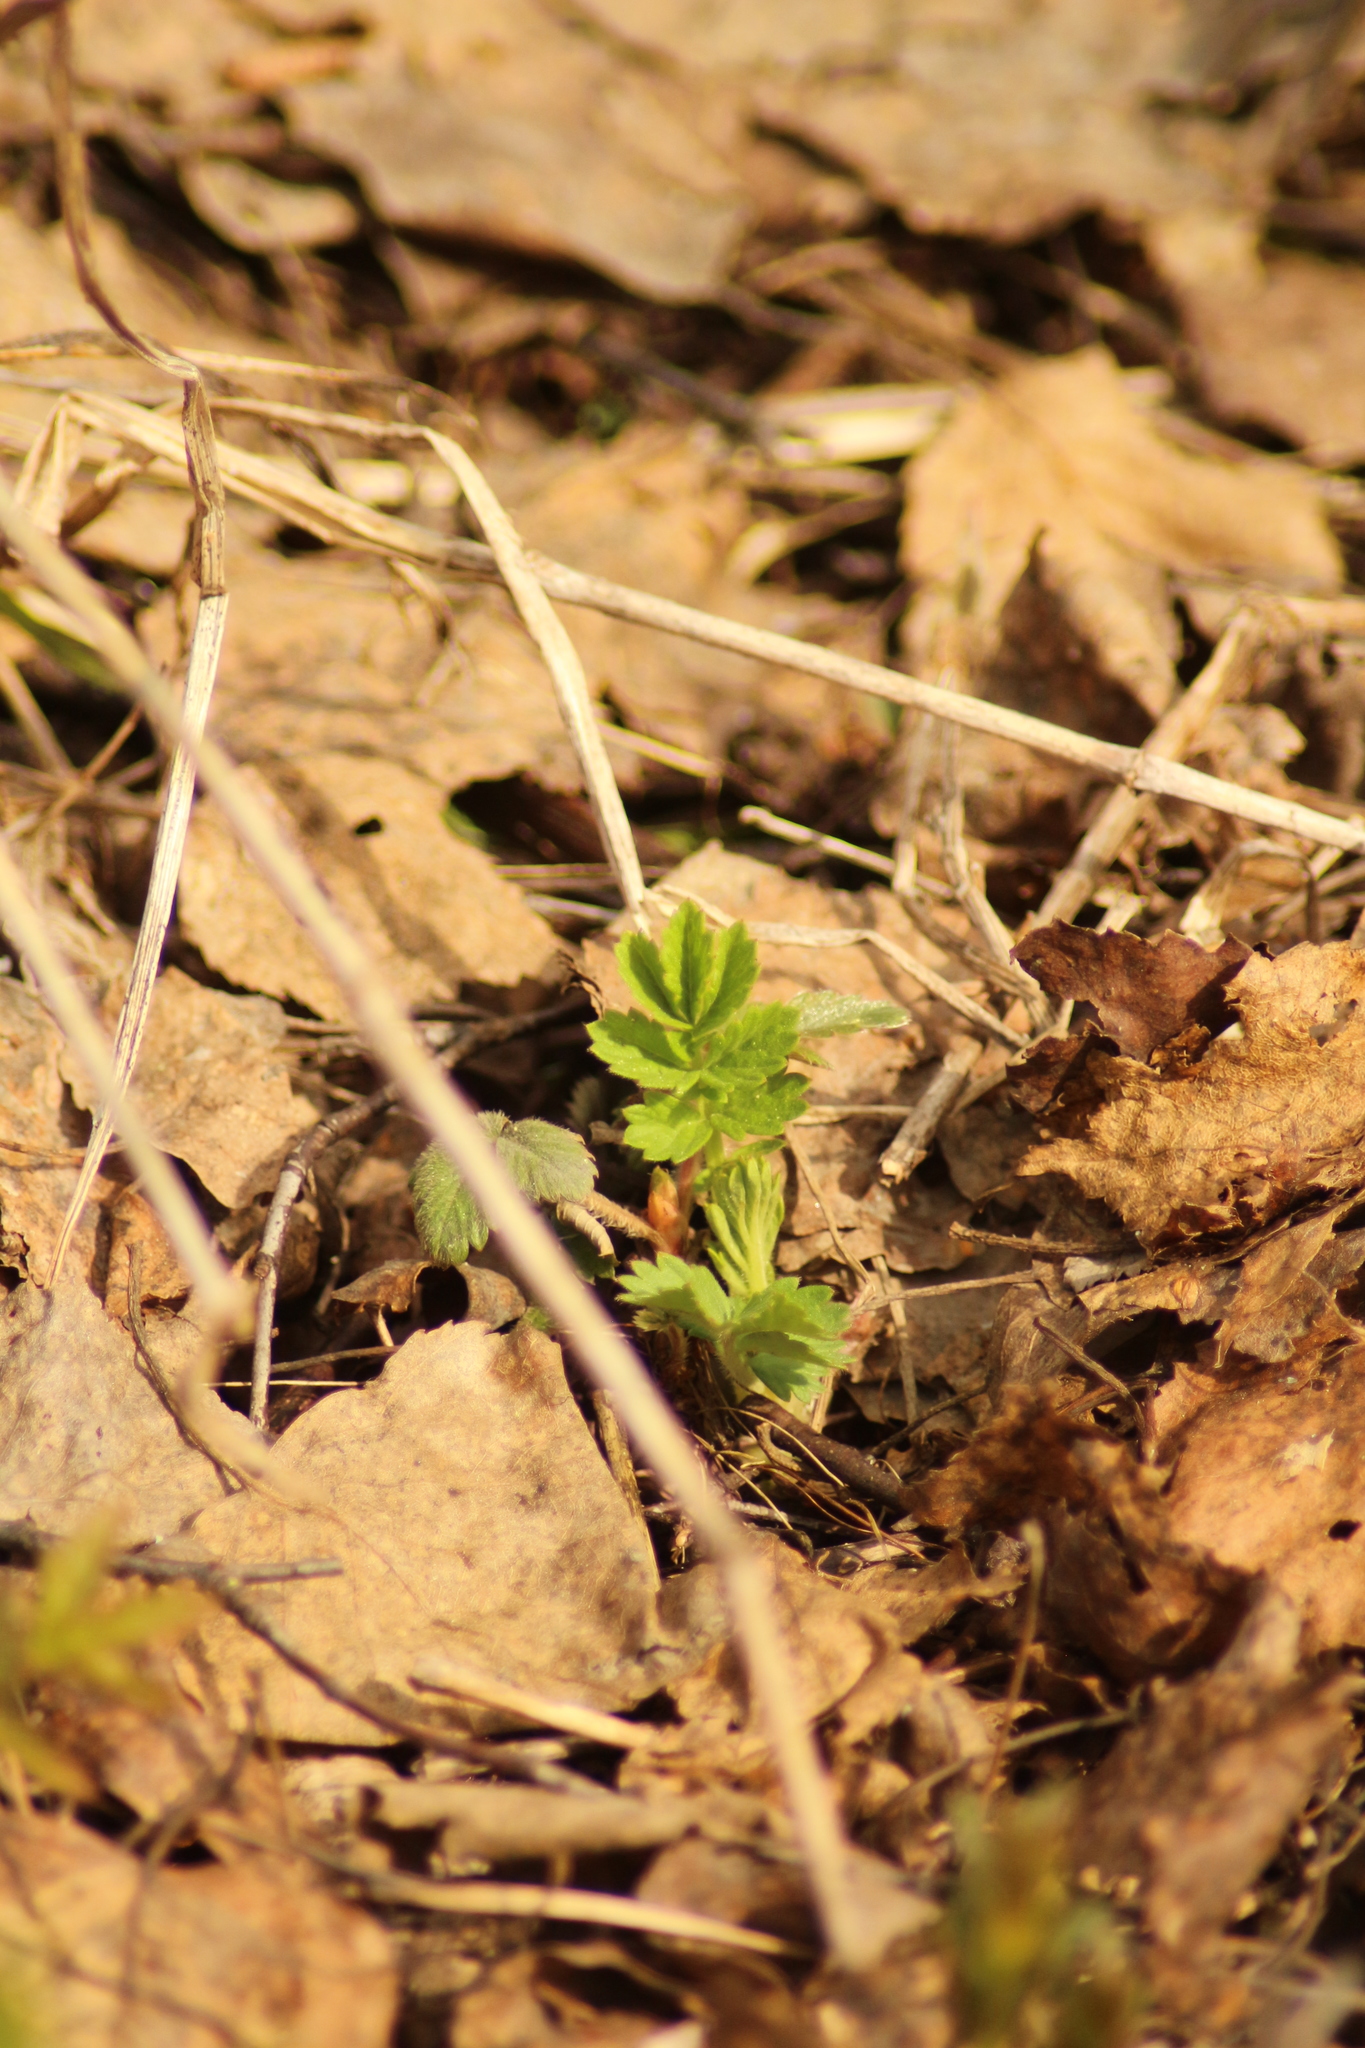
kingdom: Plantae
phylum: Tracheophyta
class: Magnoliopsida
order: Rosales
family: Rosaceae
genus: Agrimonia
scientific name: Agrimonia pilosa
